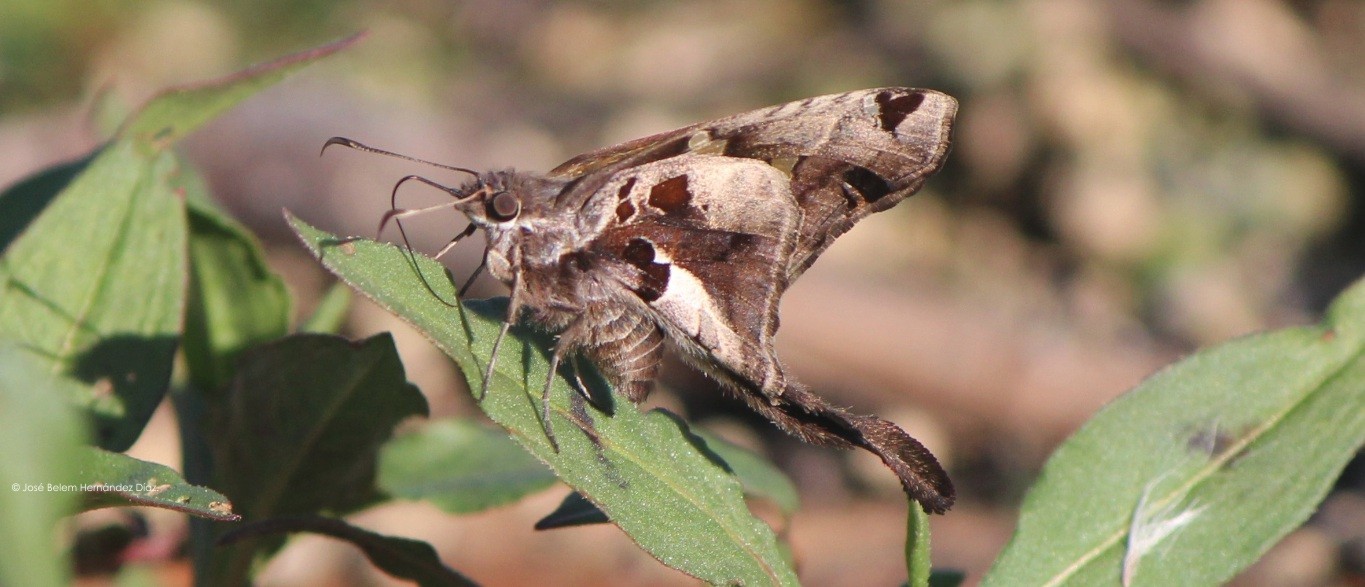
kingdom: Animalia
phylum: Arthropoda
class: Insecta
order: Lepidoptera
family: Hesperiidae
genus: Chioides
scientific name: Chioides zilpa
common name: Zilpa longtail
